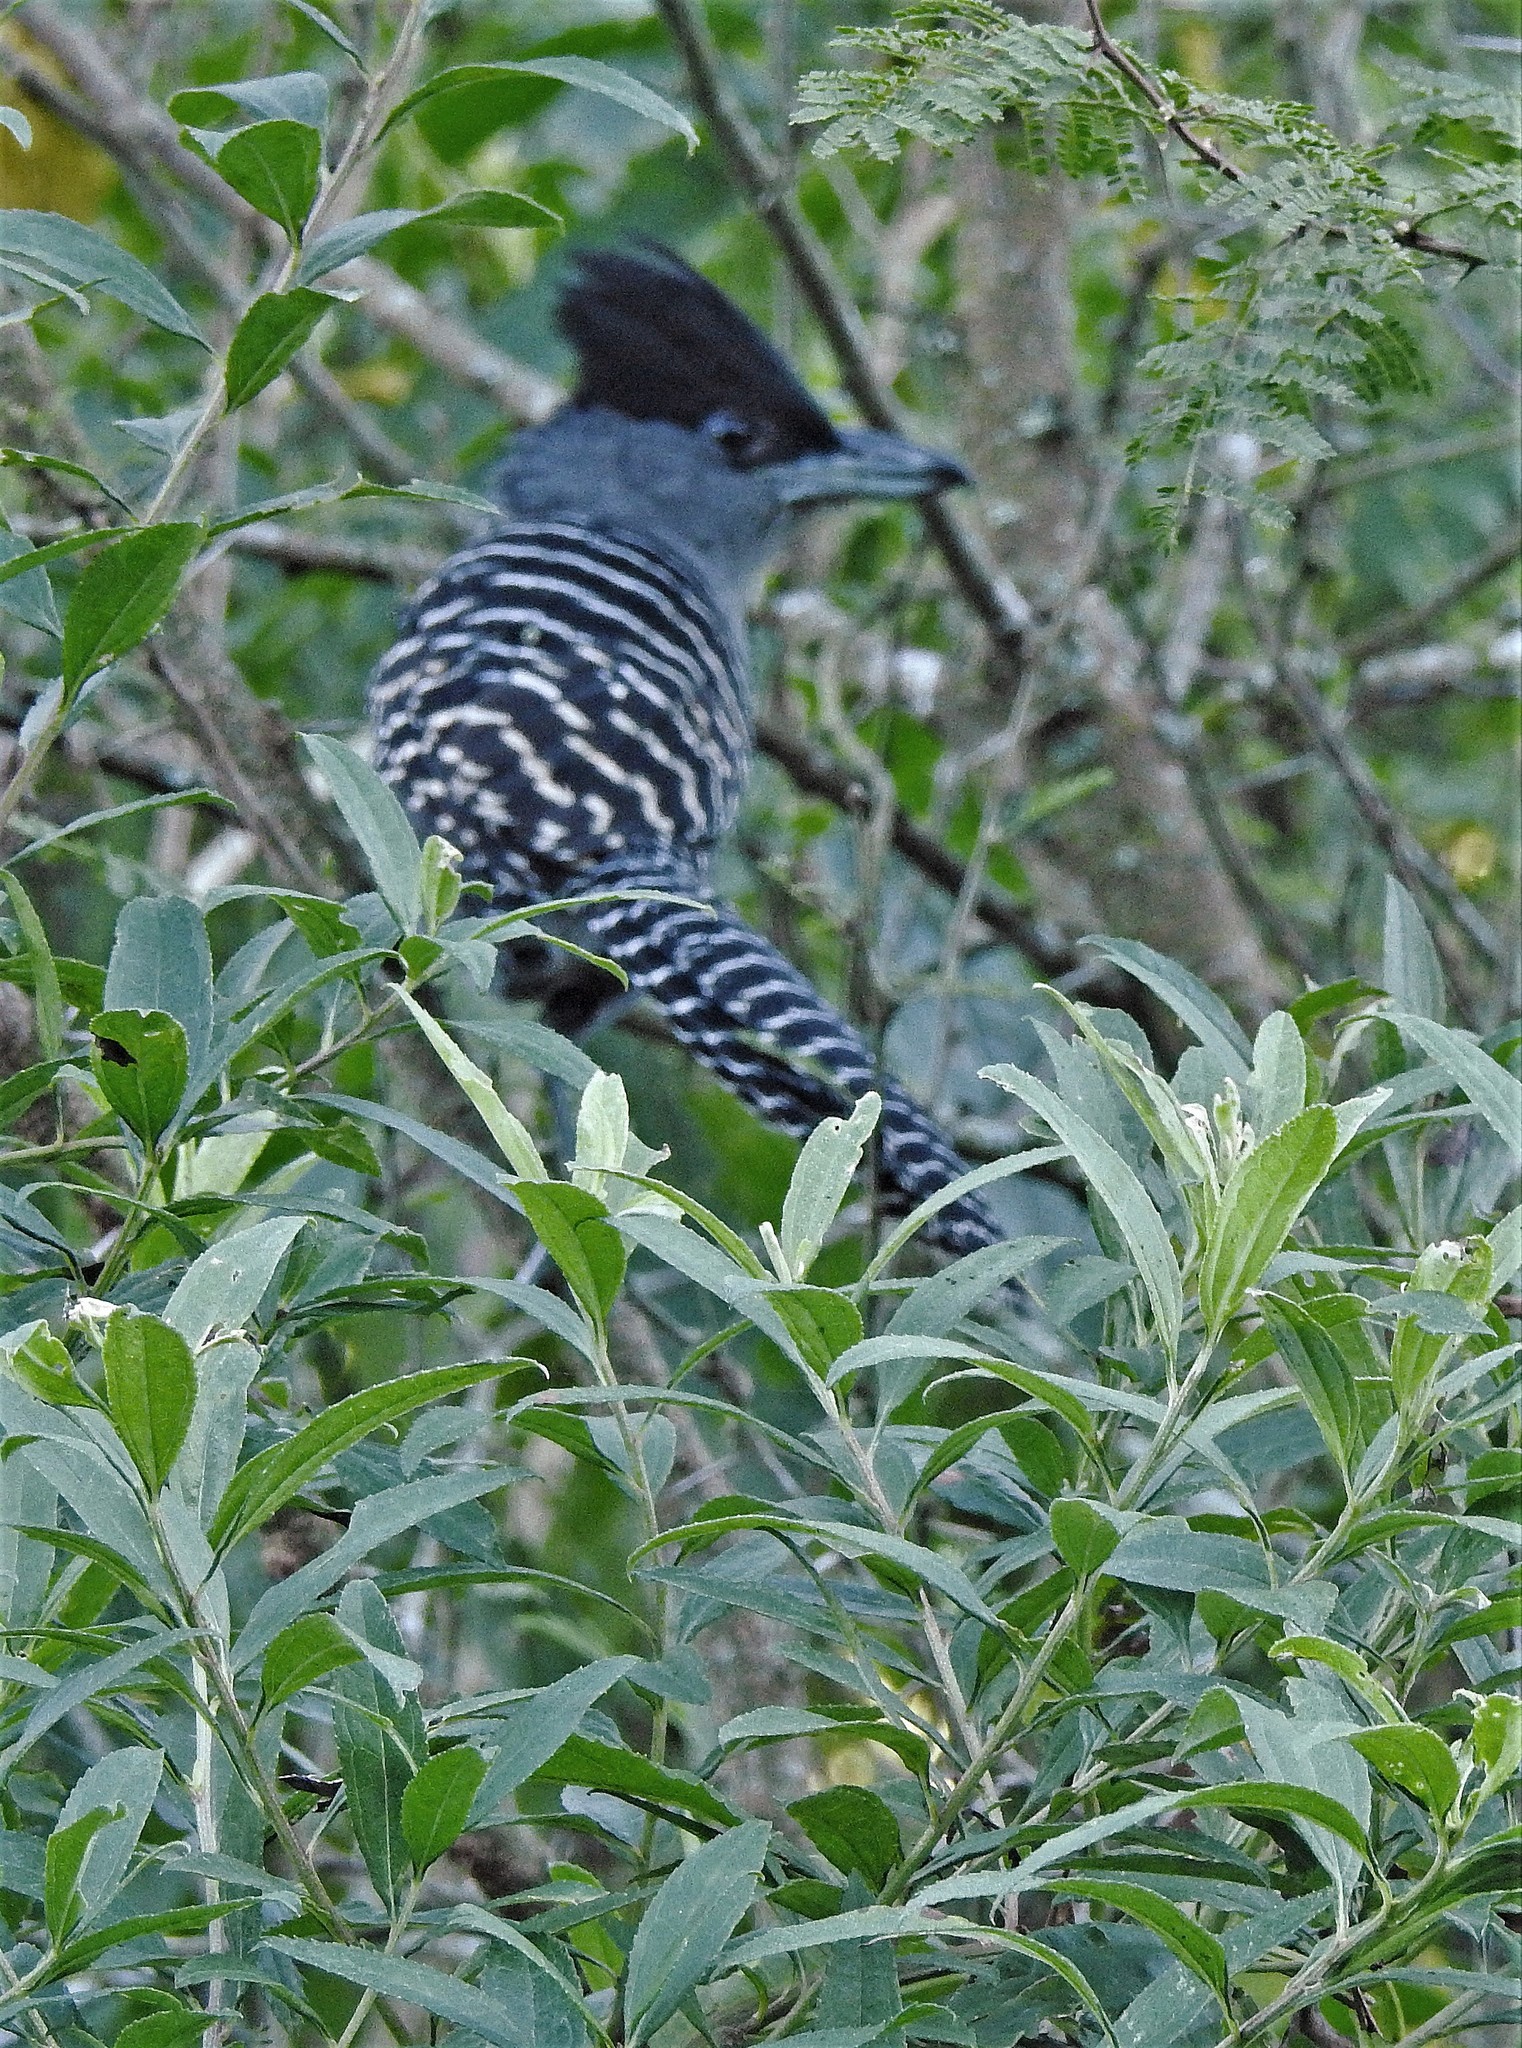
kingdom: Animalia
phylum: Chordata
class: Aves
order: Passeriformes
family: Thamnophilidae
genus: Batara
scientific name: Batara cinerea
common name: Giant antshrike
